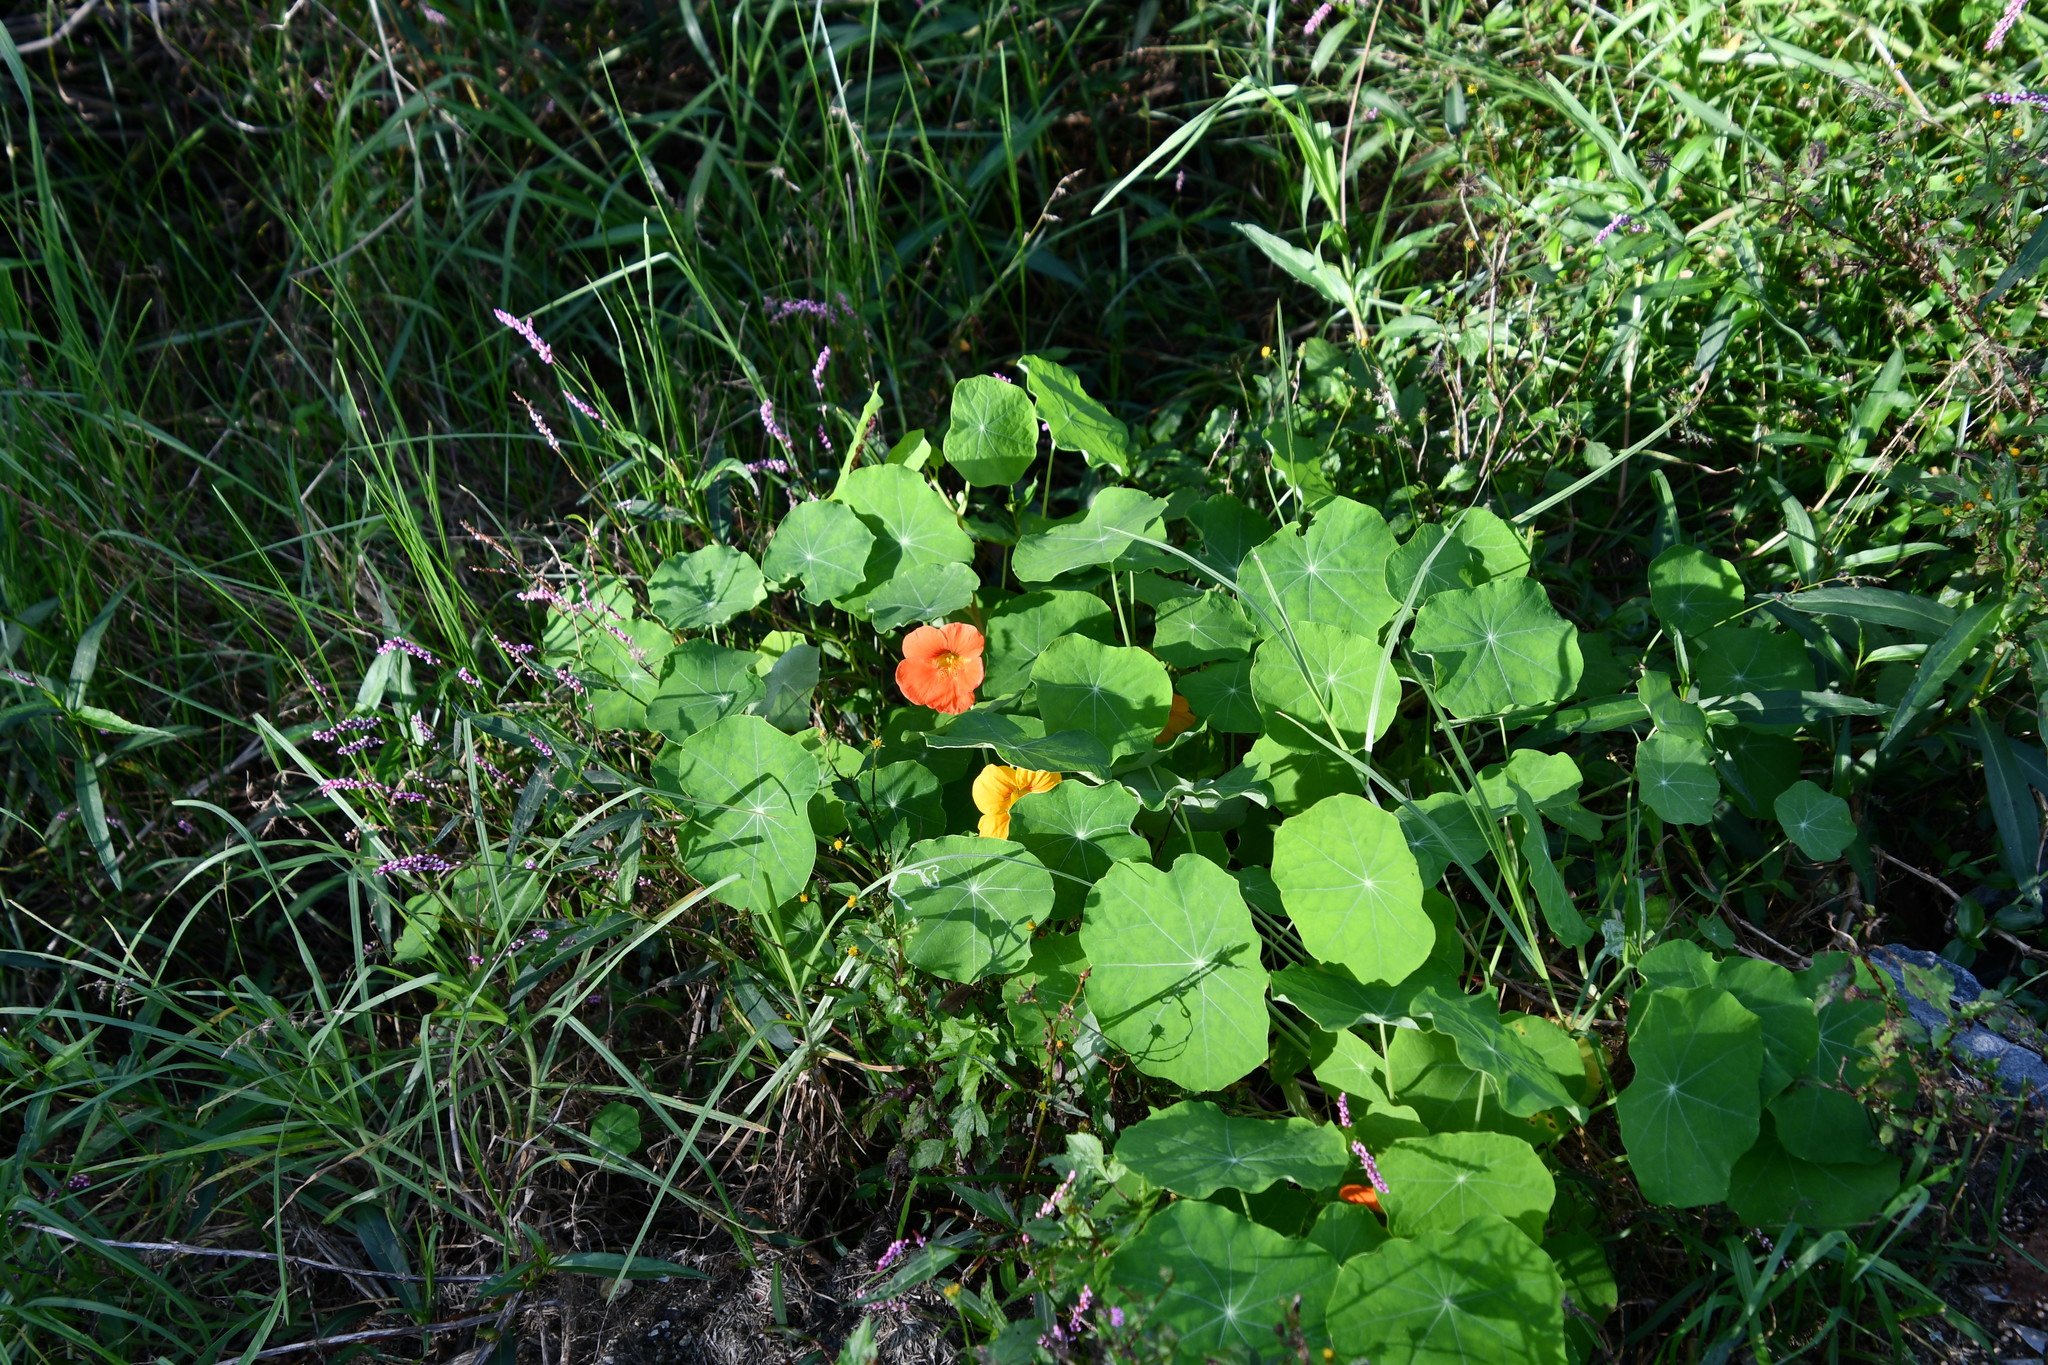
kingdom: Plantae
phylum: Tracheophyta
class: Magnoliopsida
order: Brassicales
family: Tropaeolaceae
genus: Tropaeolum
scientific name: Tropaeolum majus
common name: Nasturtium
